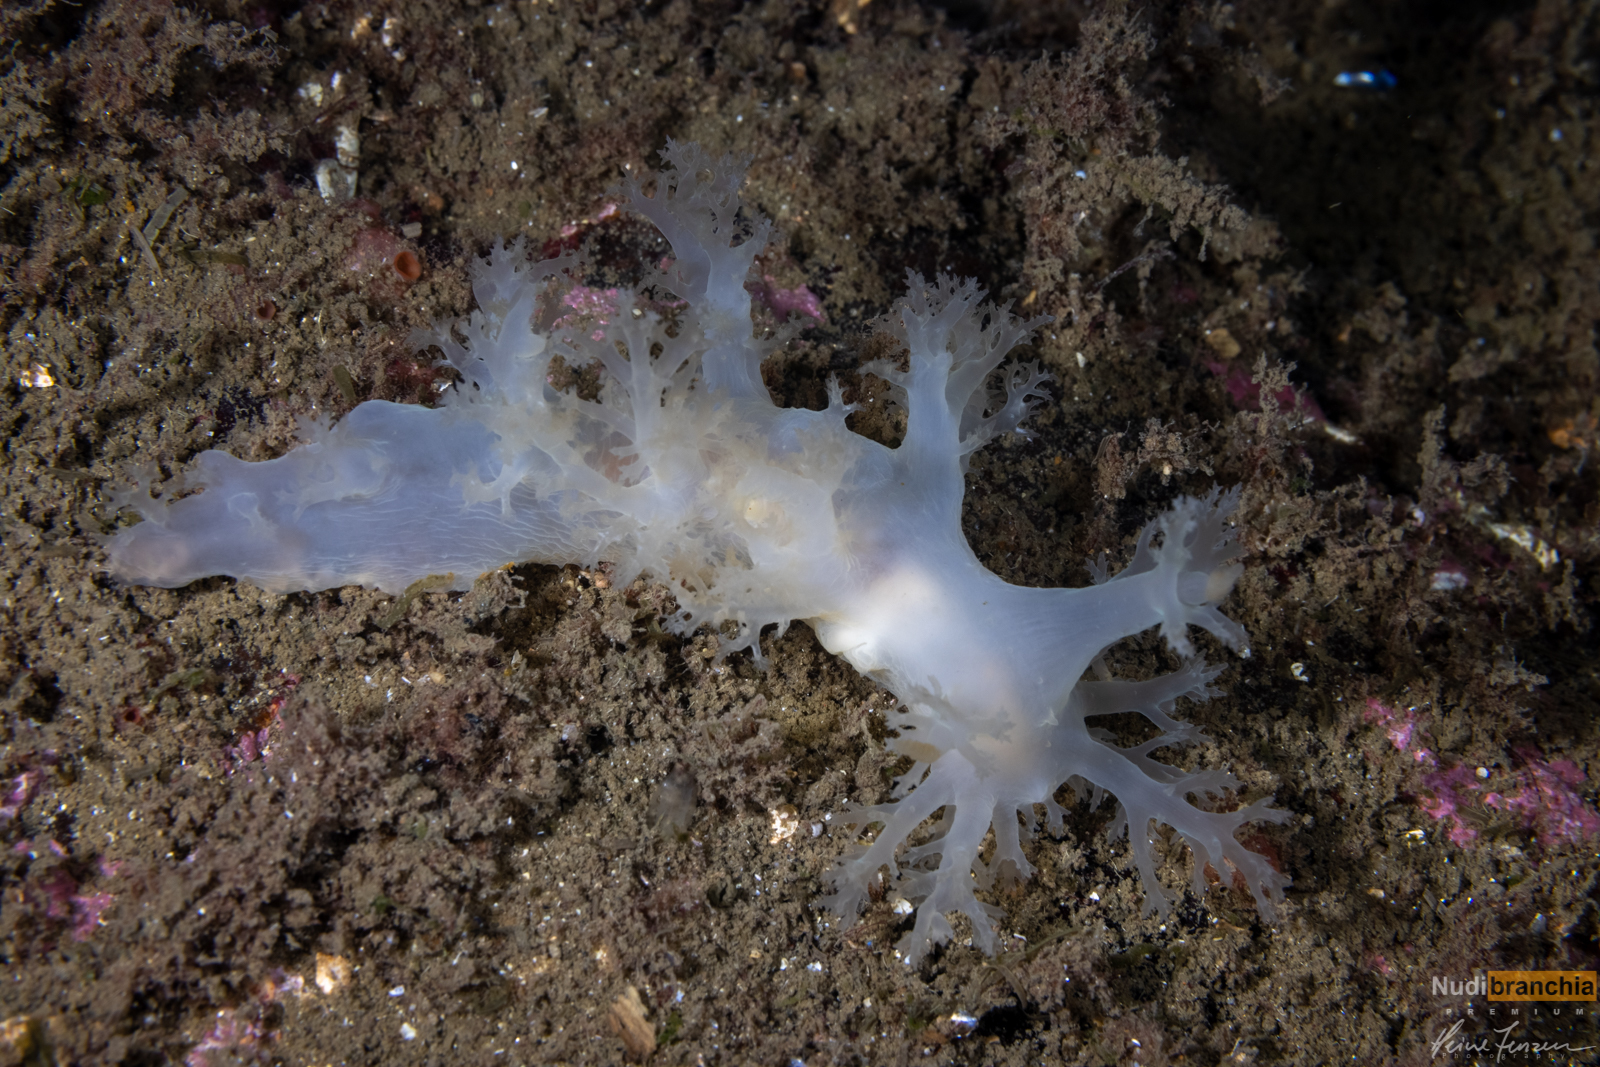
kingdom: Animalia
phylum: Mollusca
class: Gastropoda
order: Nudibranchia
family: Dendronotidae
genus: Dendronotus
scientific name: Dendronotus lacteus
